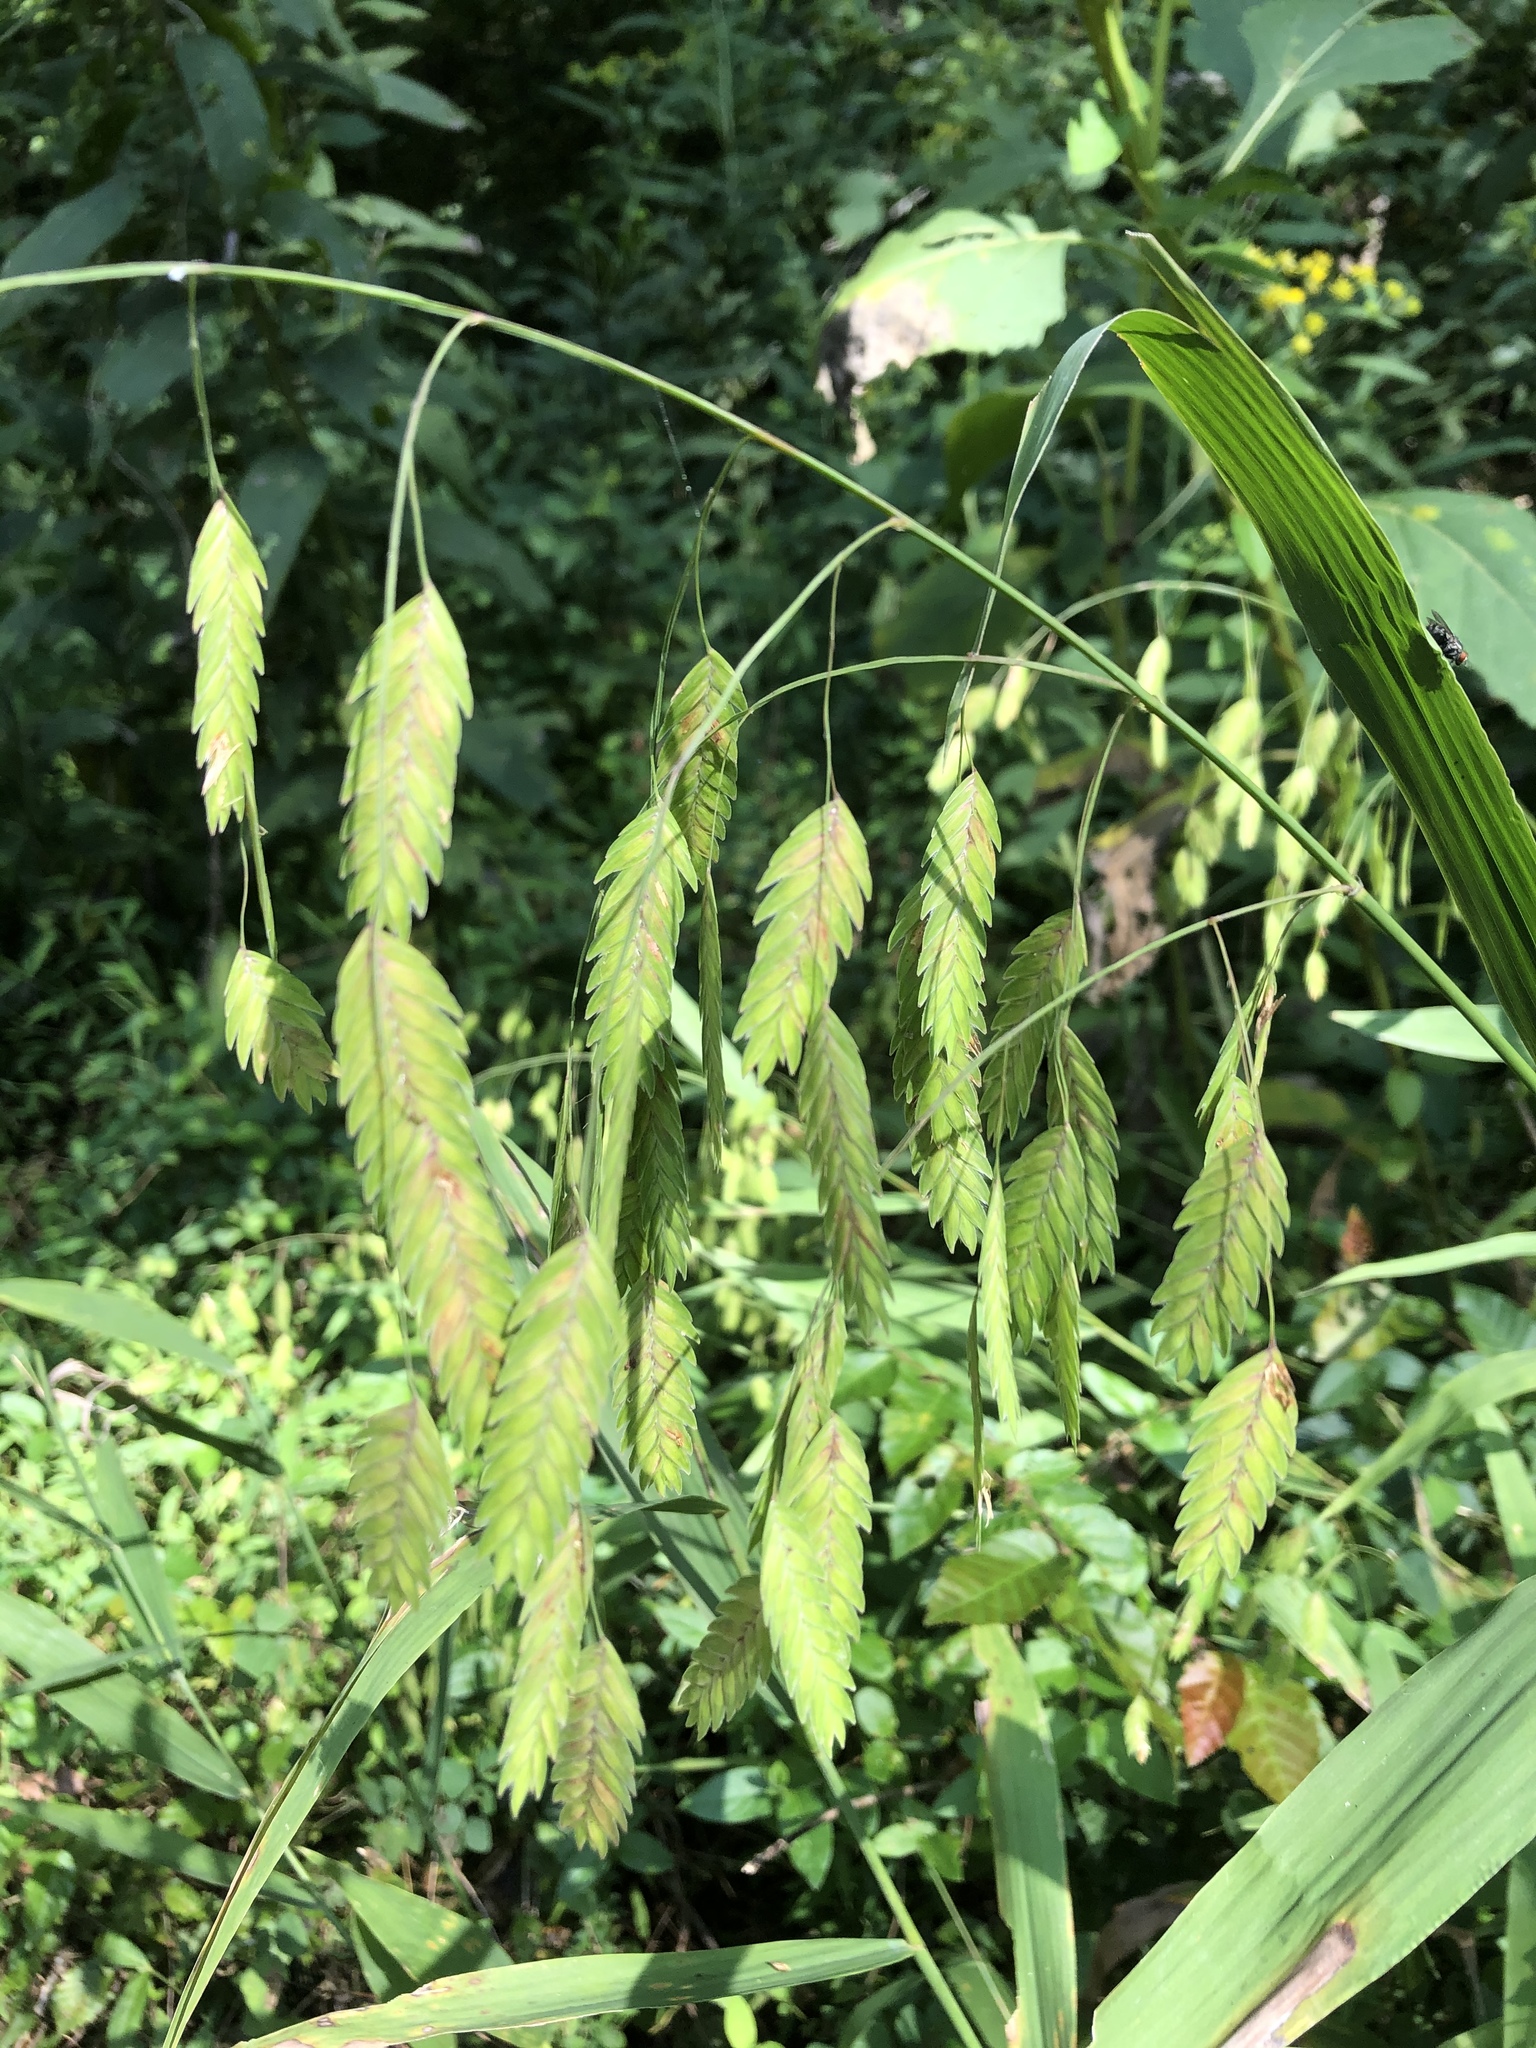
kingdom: Plantae
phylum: Tracheophyta
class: Liliopsida
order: Poales
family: Poaceae
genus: Chasmanthium
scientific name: Chasmanthium latifolium
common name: Broad-leaved chasmanthium
